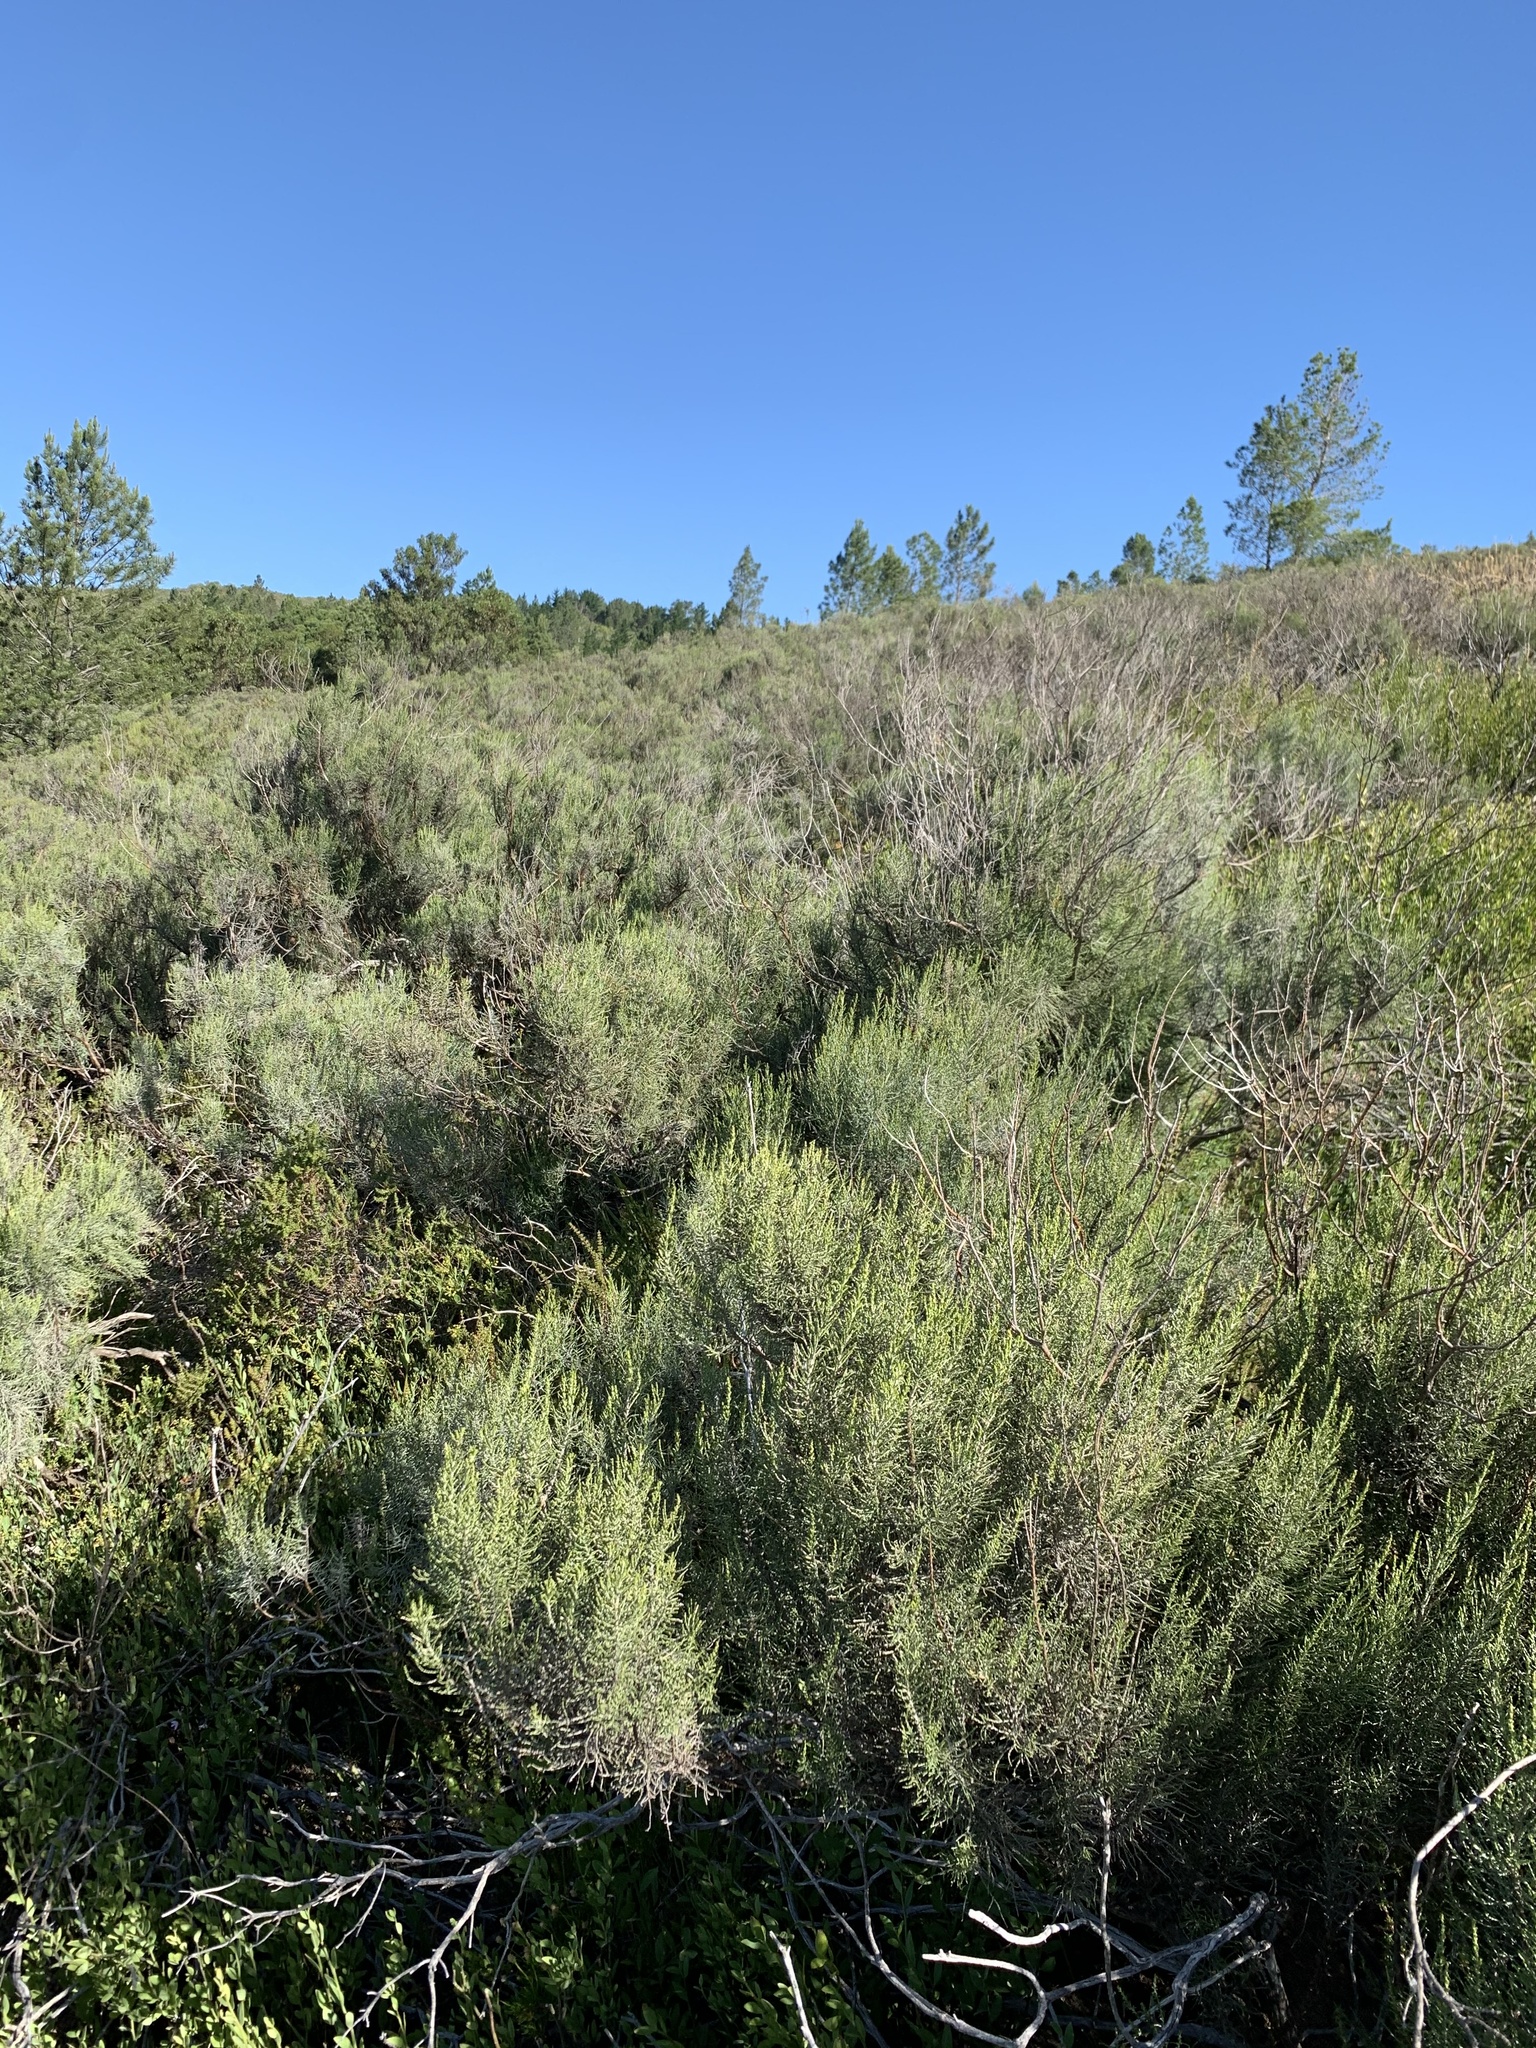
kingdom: Plantae
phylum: Tracheophyta
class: Magnoliopsida
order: Asterales
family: Asteraceae
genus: Dicerothamnus
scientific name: Dicerothamnus rhinocerotis
